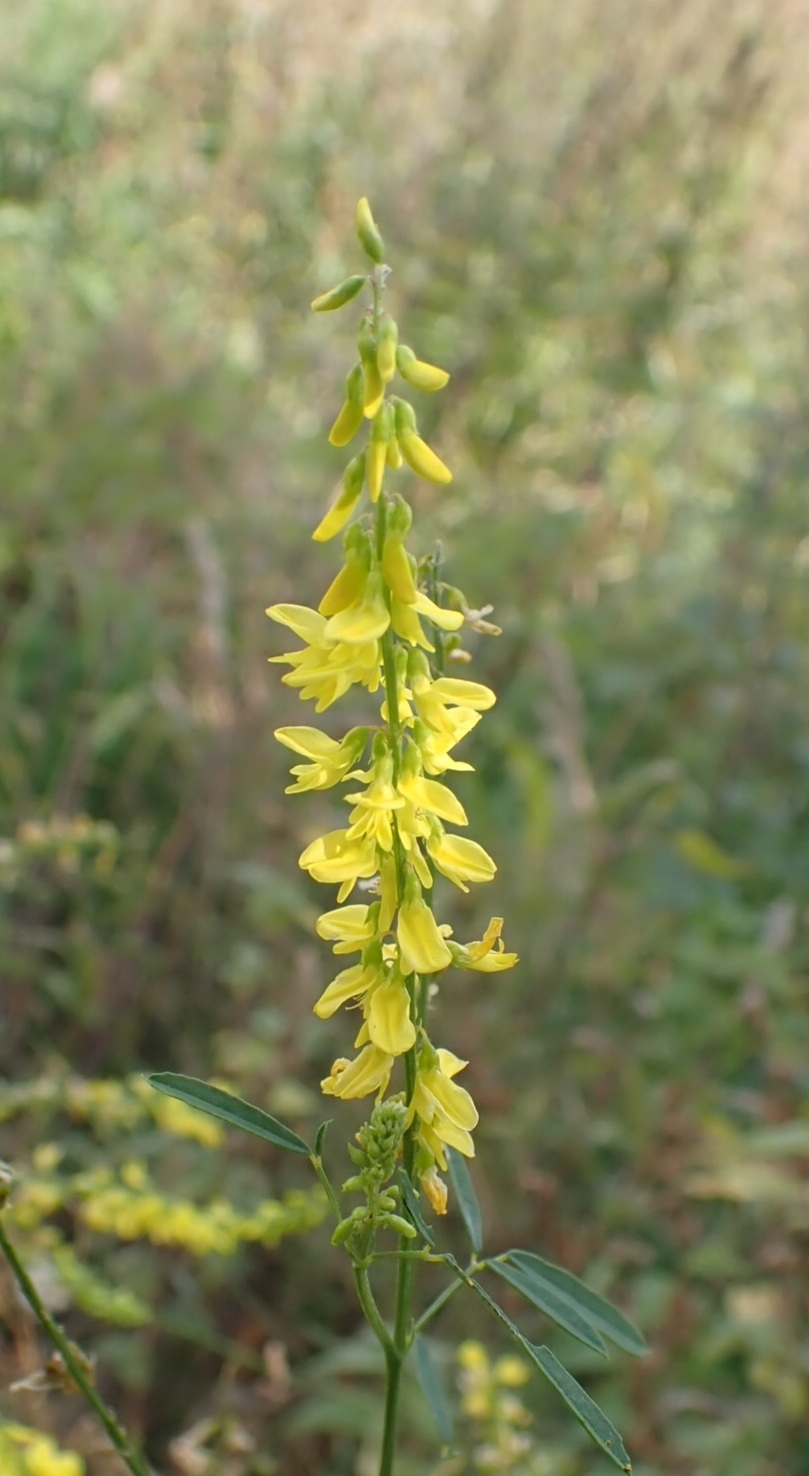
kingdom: Plantae
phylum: Tracheophyta
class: Magnoliopsida
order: Fabales
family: Fabaceae
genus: Melilotus
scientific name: Melilotus officinalis
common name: Sweetclover
